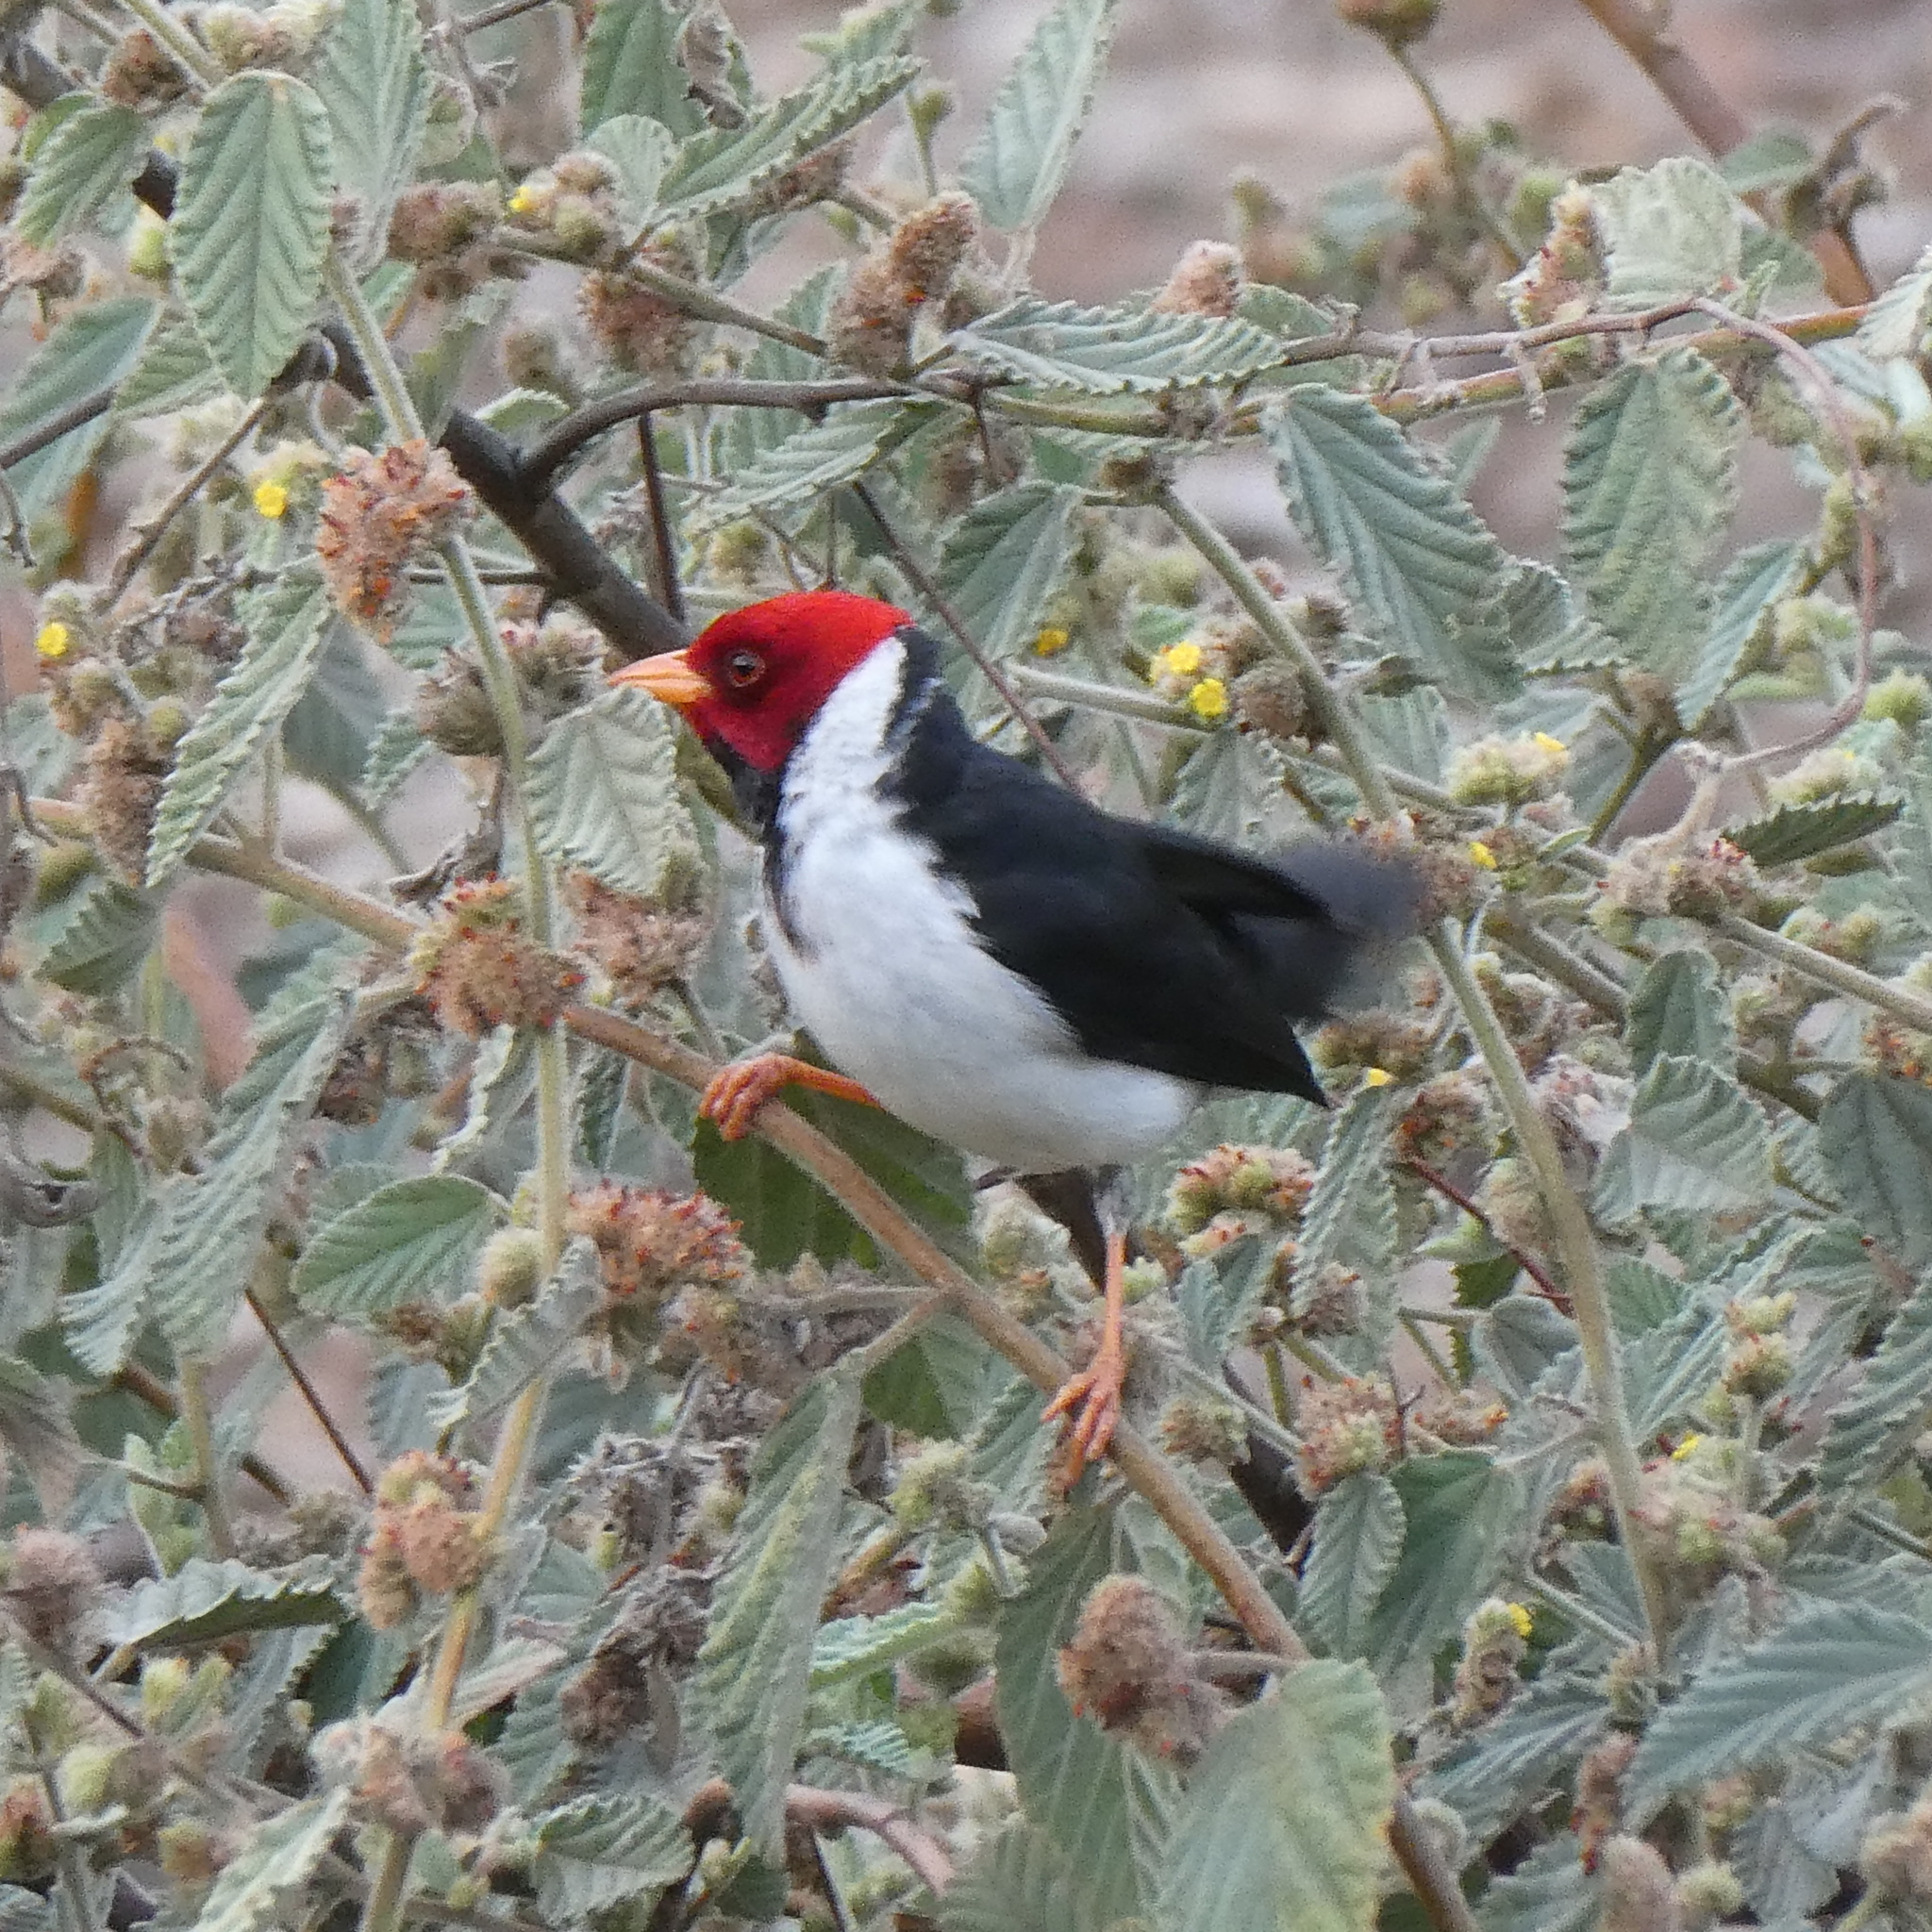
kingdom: Animalia
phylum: Chordata
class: Aves
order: Passeriformes
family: Thraupidae
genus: Paroaria
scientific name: Paroaria capitata
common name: Yellow-billed cardinal
